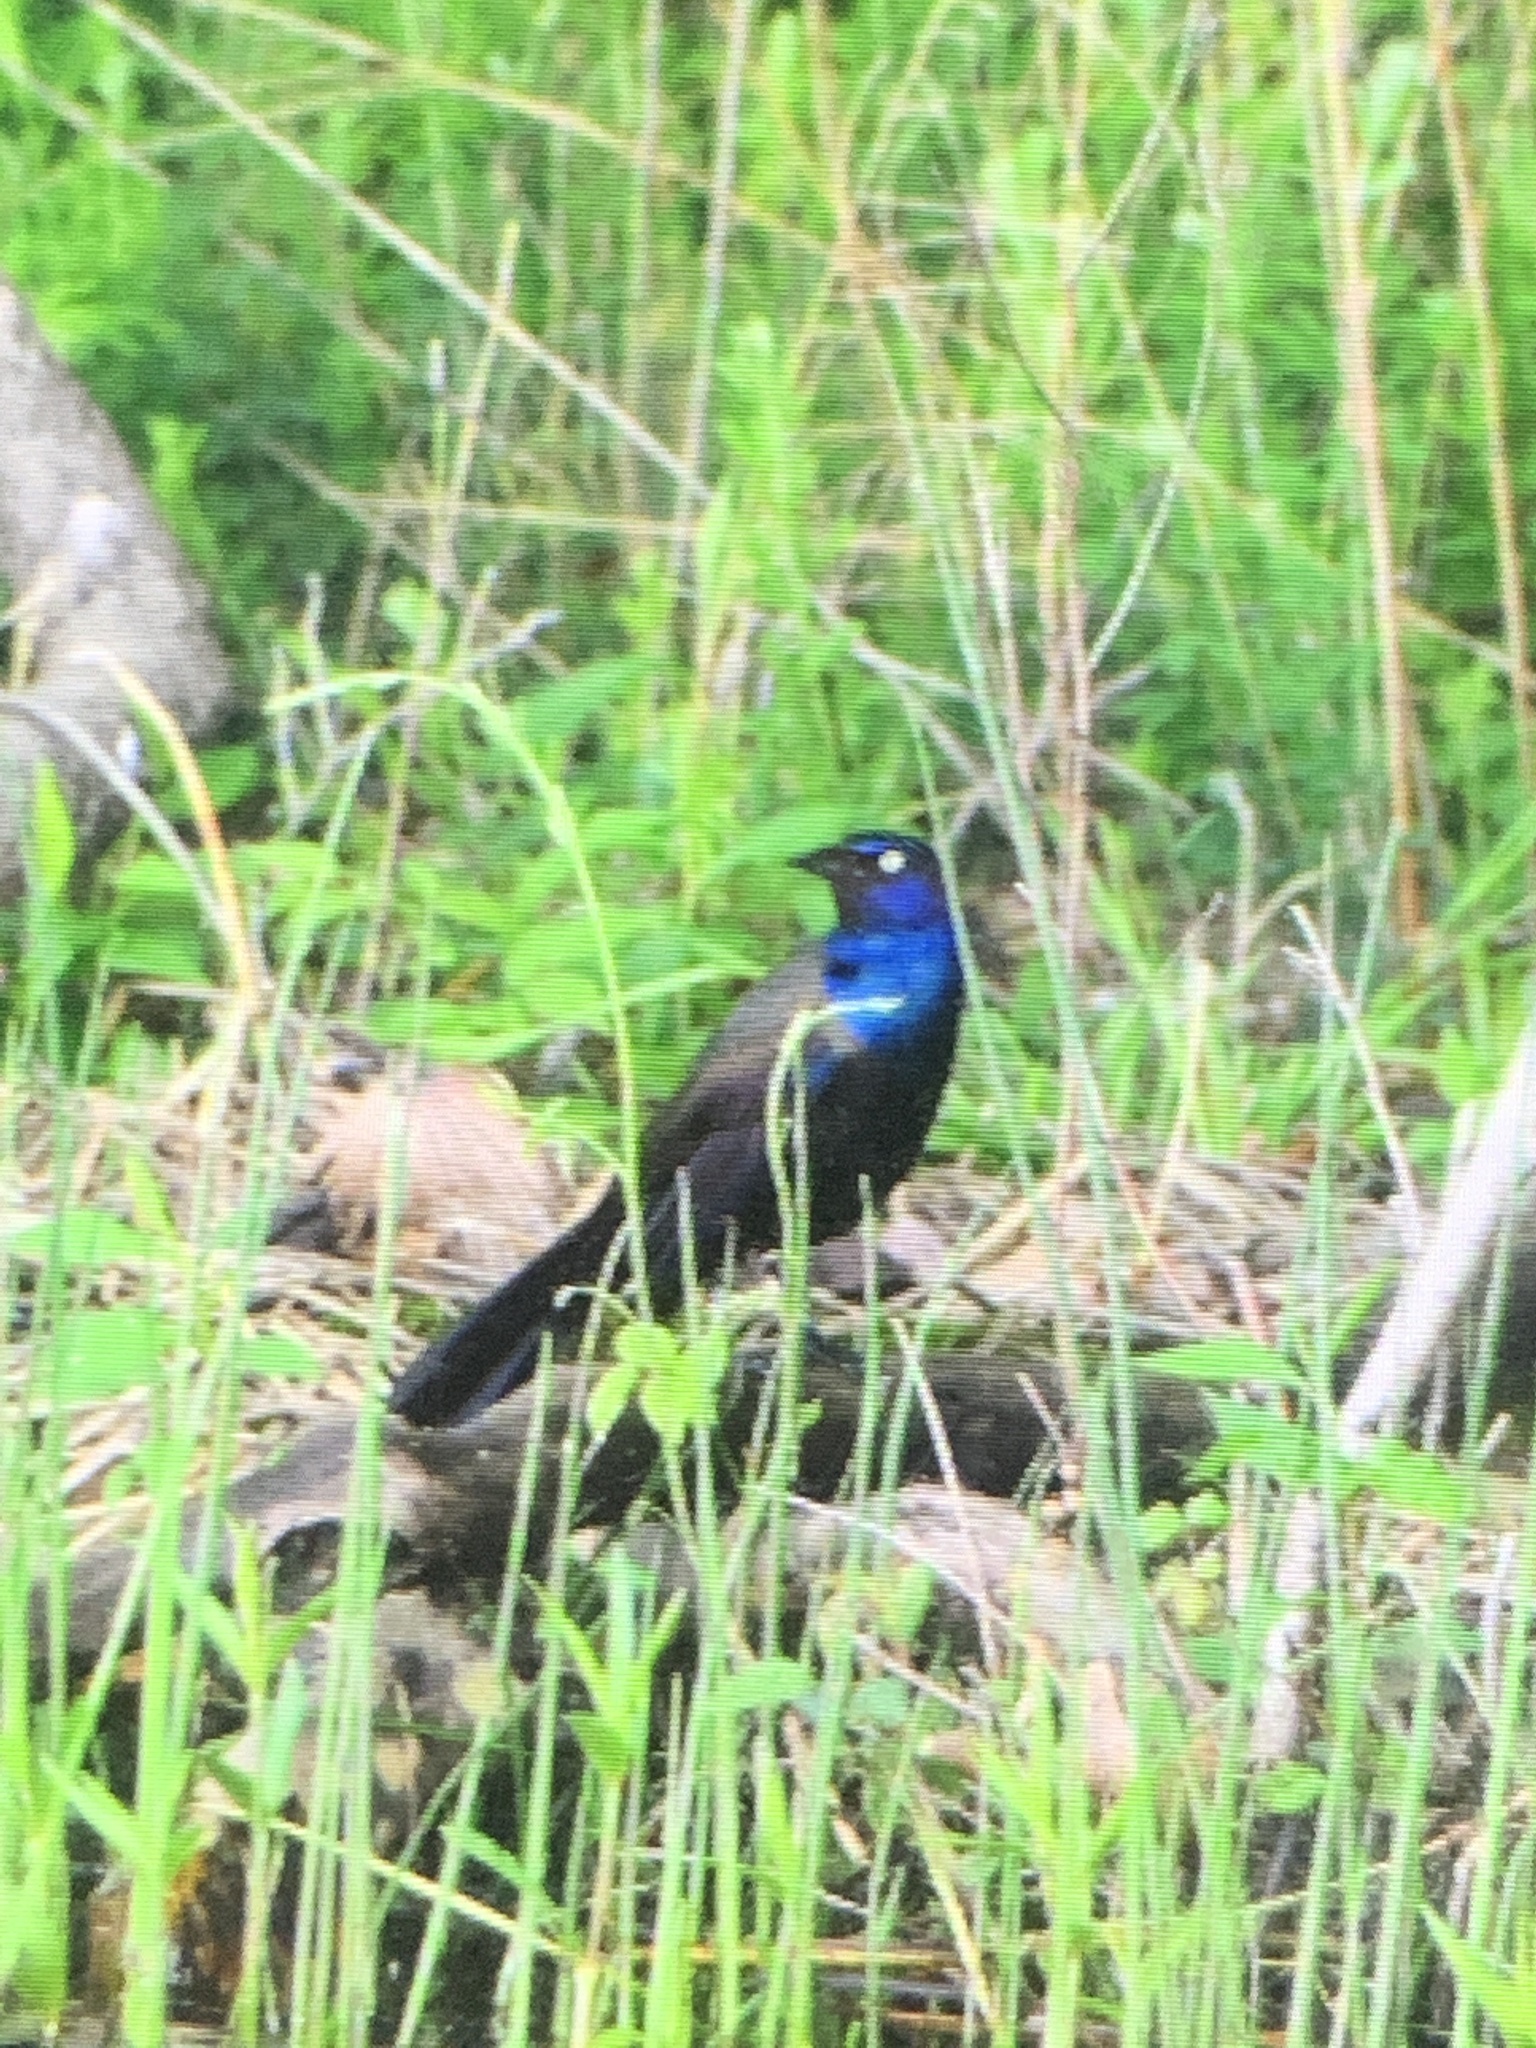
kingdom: Animalia
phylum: Chordata
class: Aves
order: Passeriformes
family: Icteridae
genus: Quiscalus
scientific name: Quiscalus quiscula
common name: Common grackle
